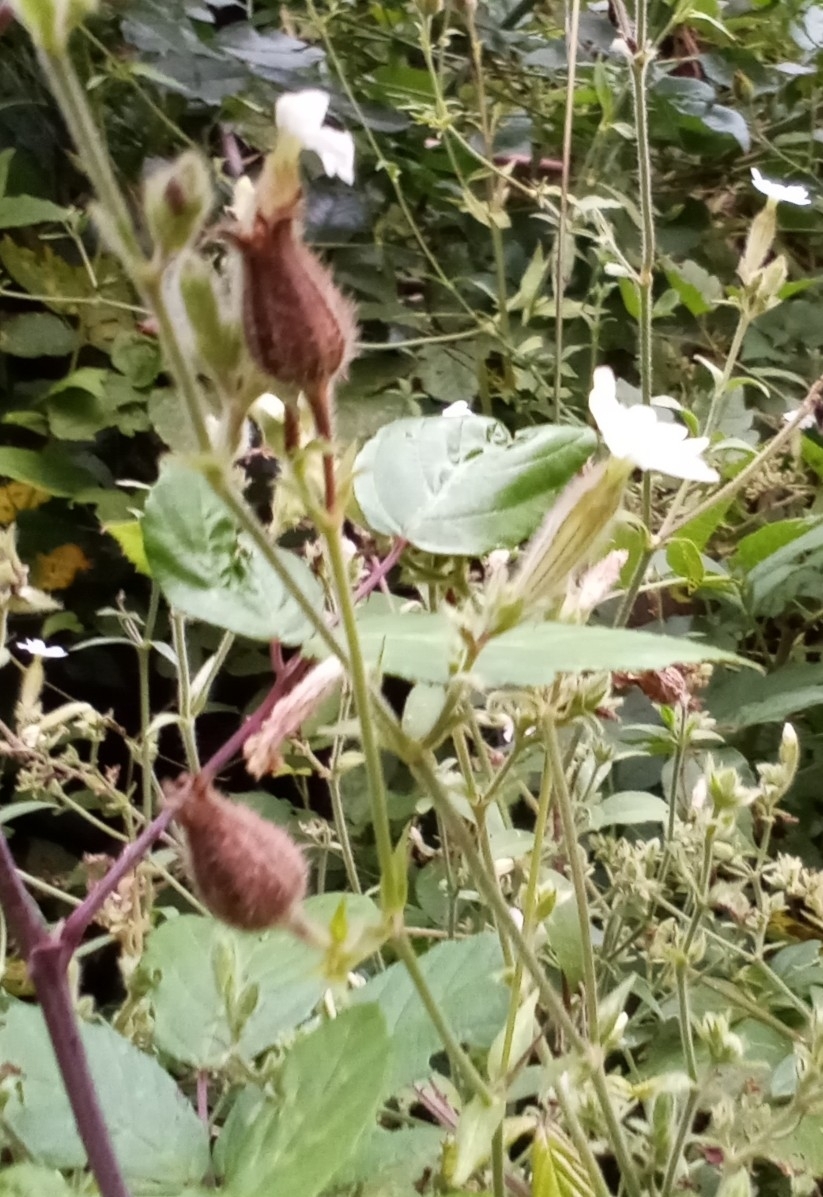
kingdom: Plantae
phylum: Tracheophyta
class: Magnoliopsida
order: Caryophyllales
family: Caryophyllaceae
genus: Silene
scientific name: Silene latifolia
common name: White campion
